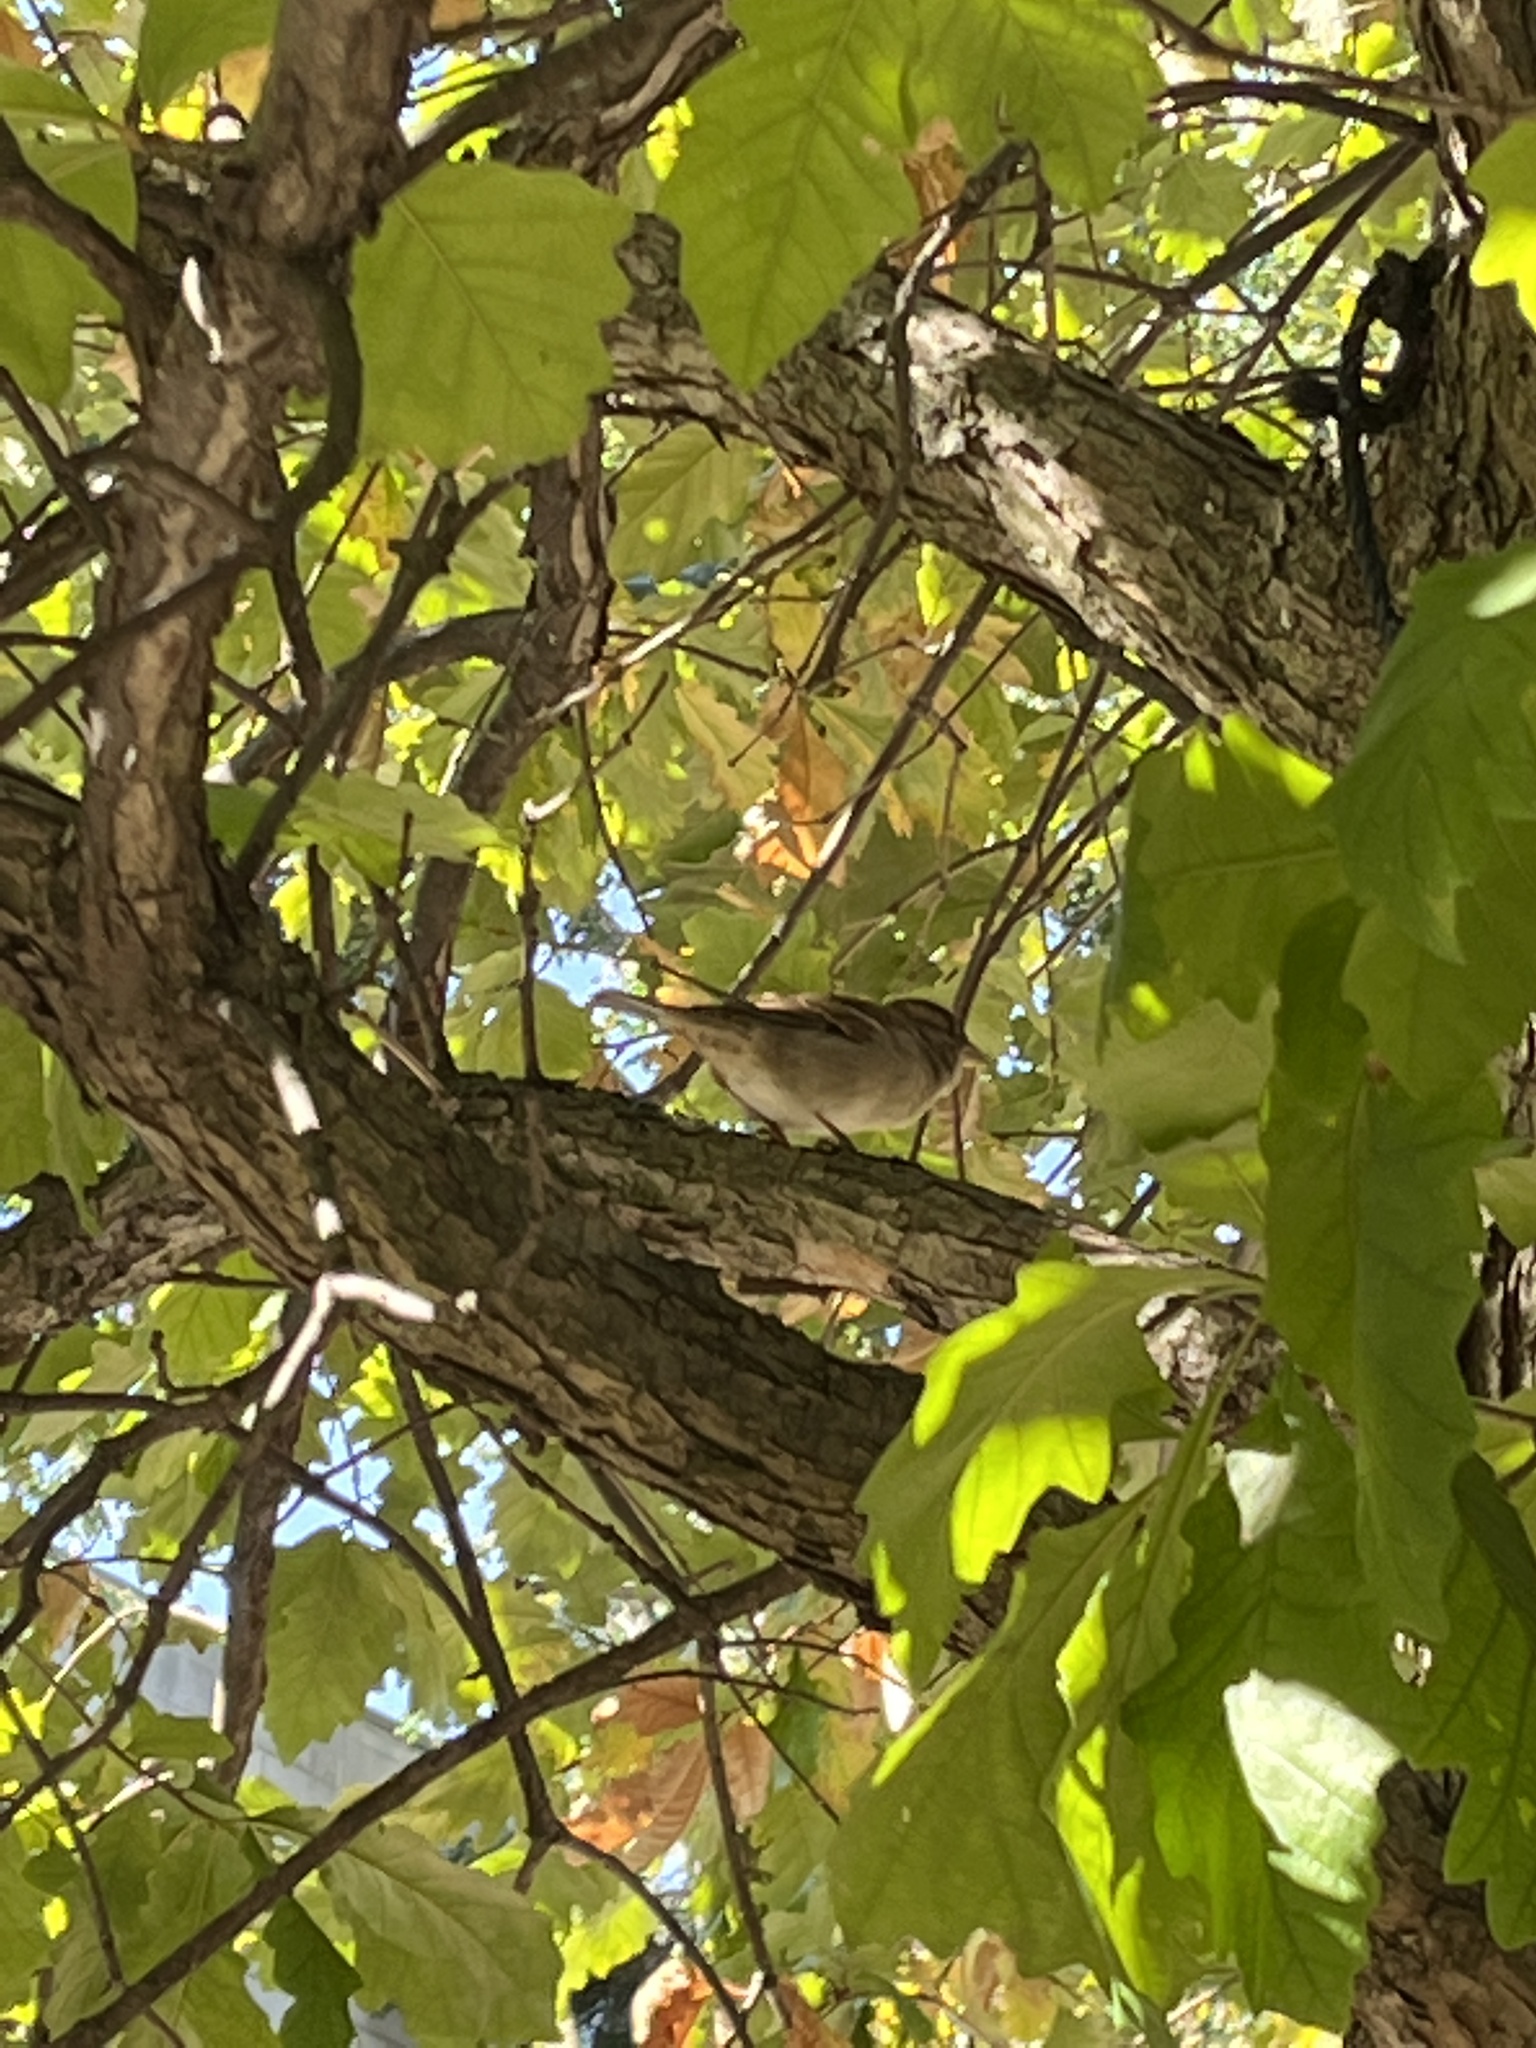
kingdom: Animalia
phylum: Chordata
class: Aves
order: Passeriformes
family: Passeridae
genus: Passer
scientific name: Passer domesticus
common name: House sparrow
